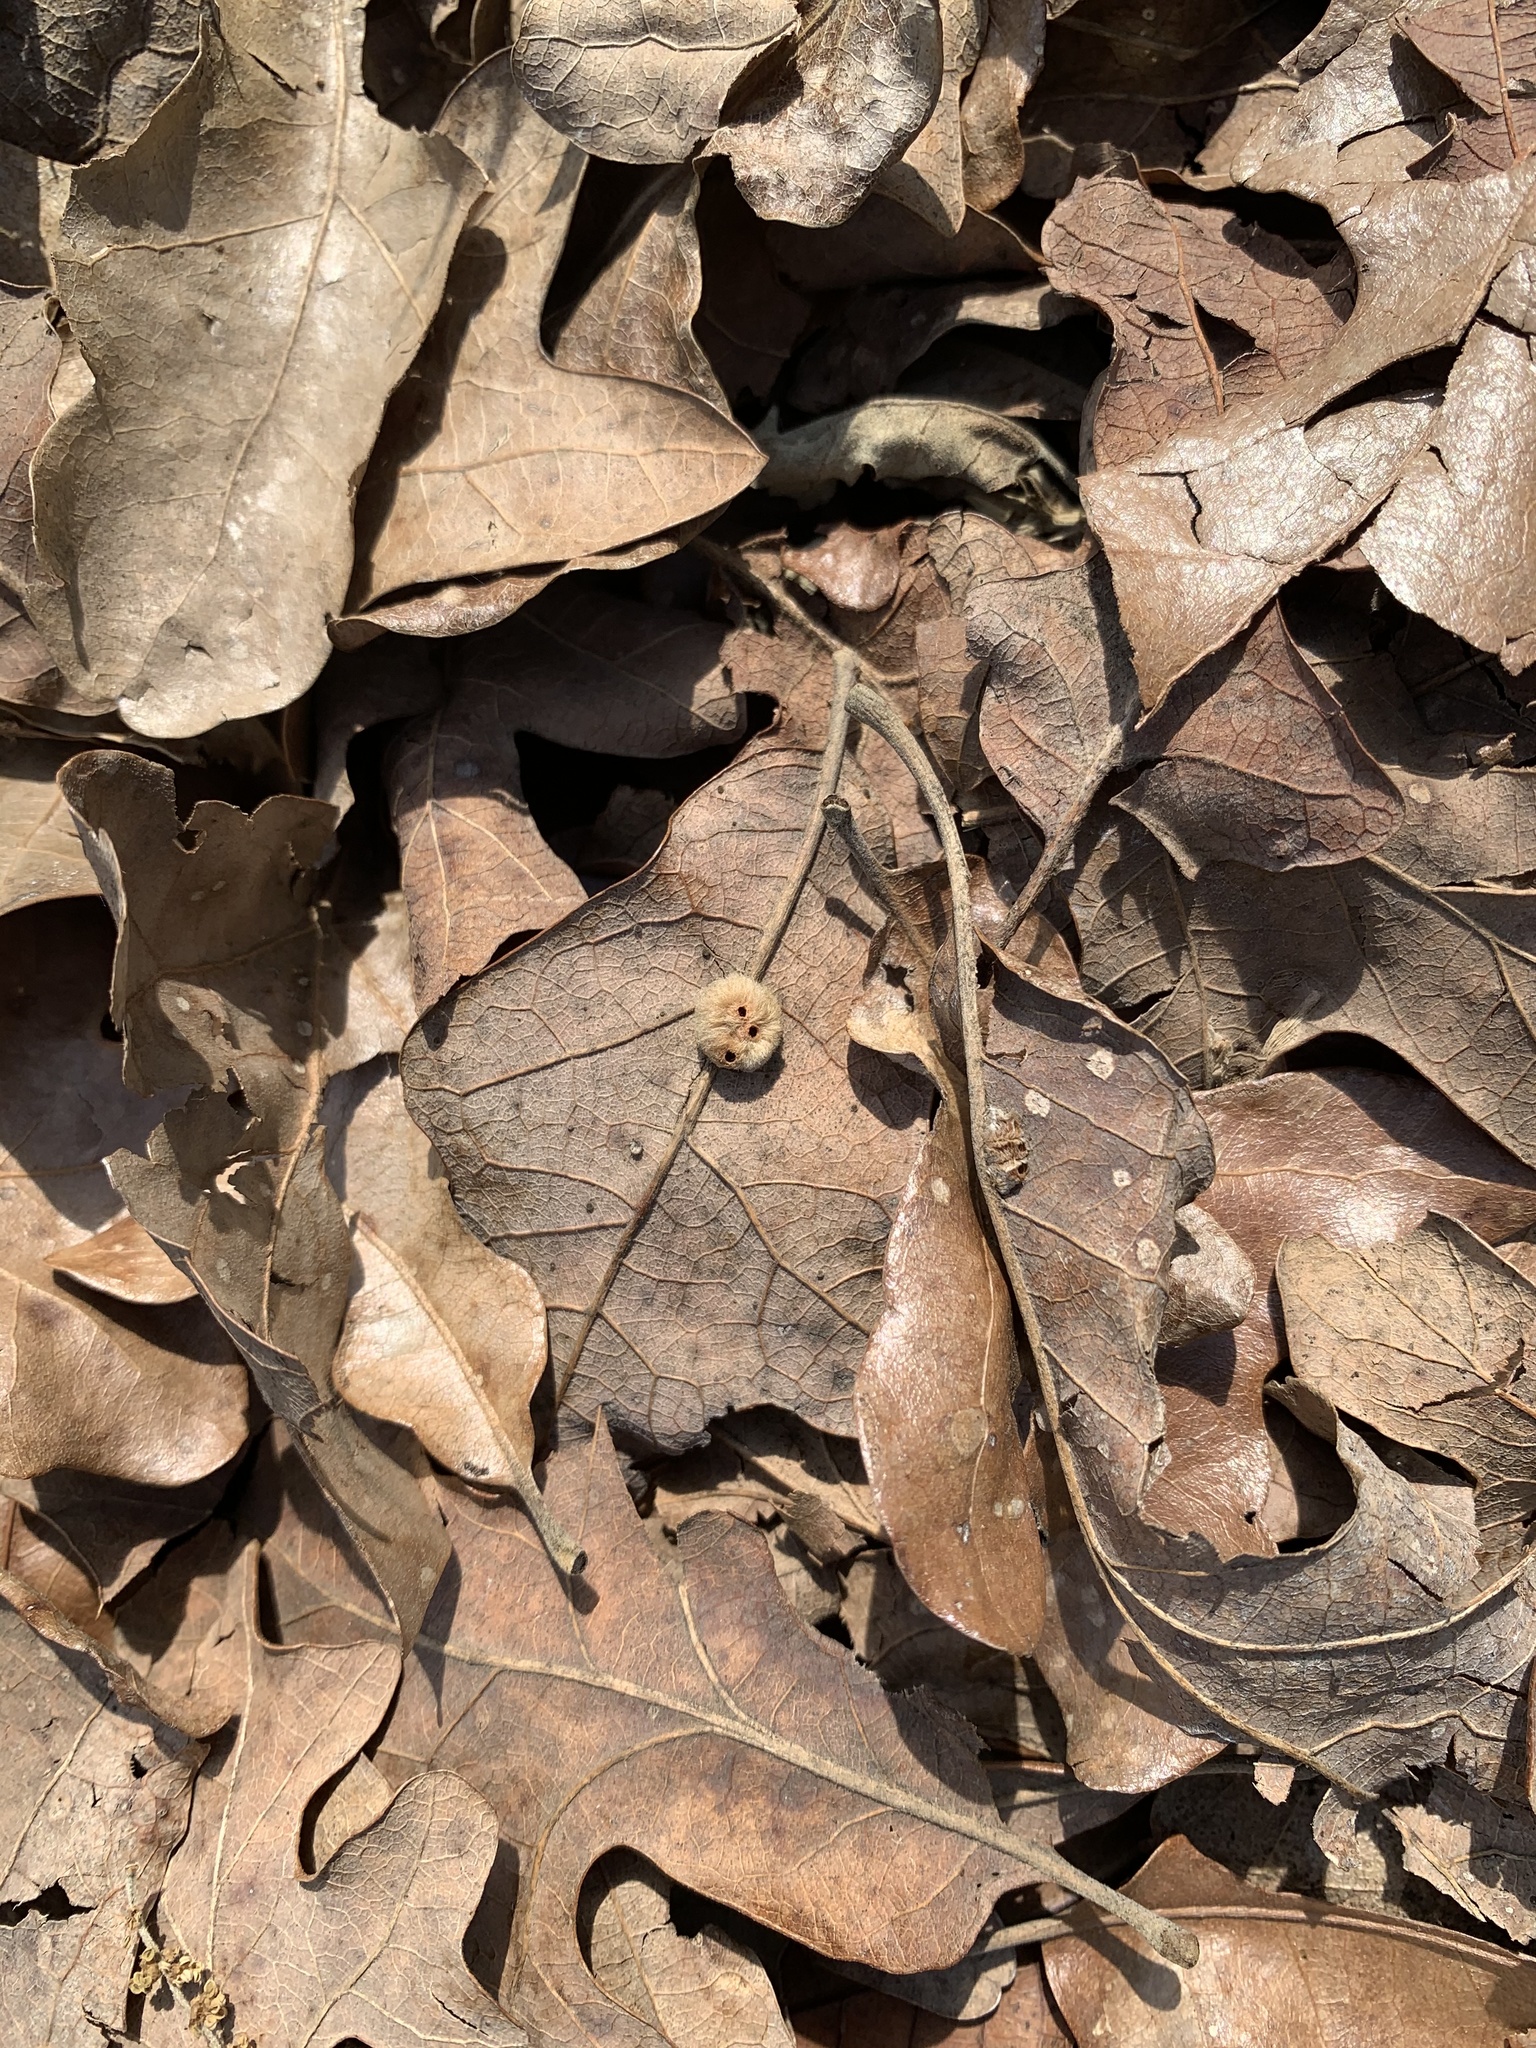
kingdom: Animalia
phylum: Arthropoda
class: Insecta
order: Hymenoptera
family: Cynipidae
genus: Andricus
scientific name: Andricus Druon pattoni
